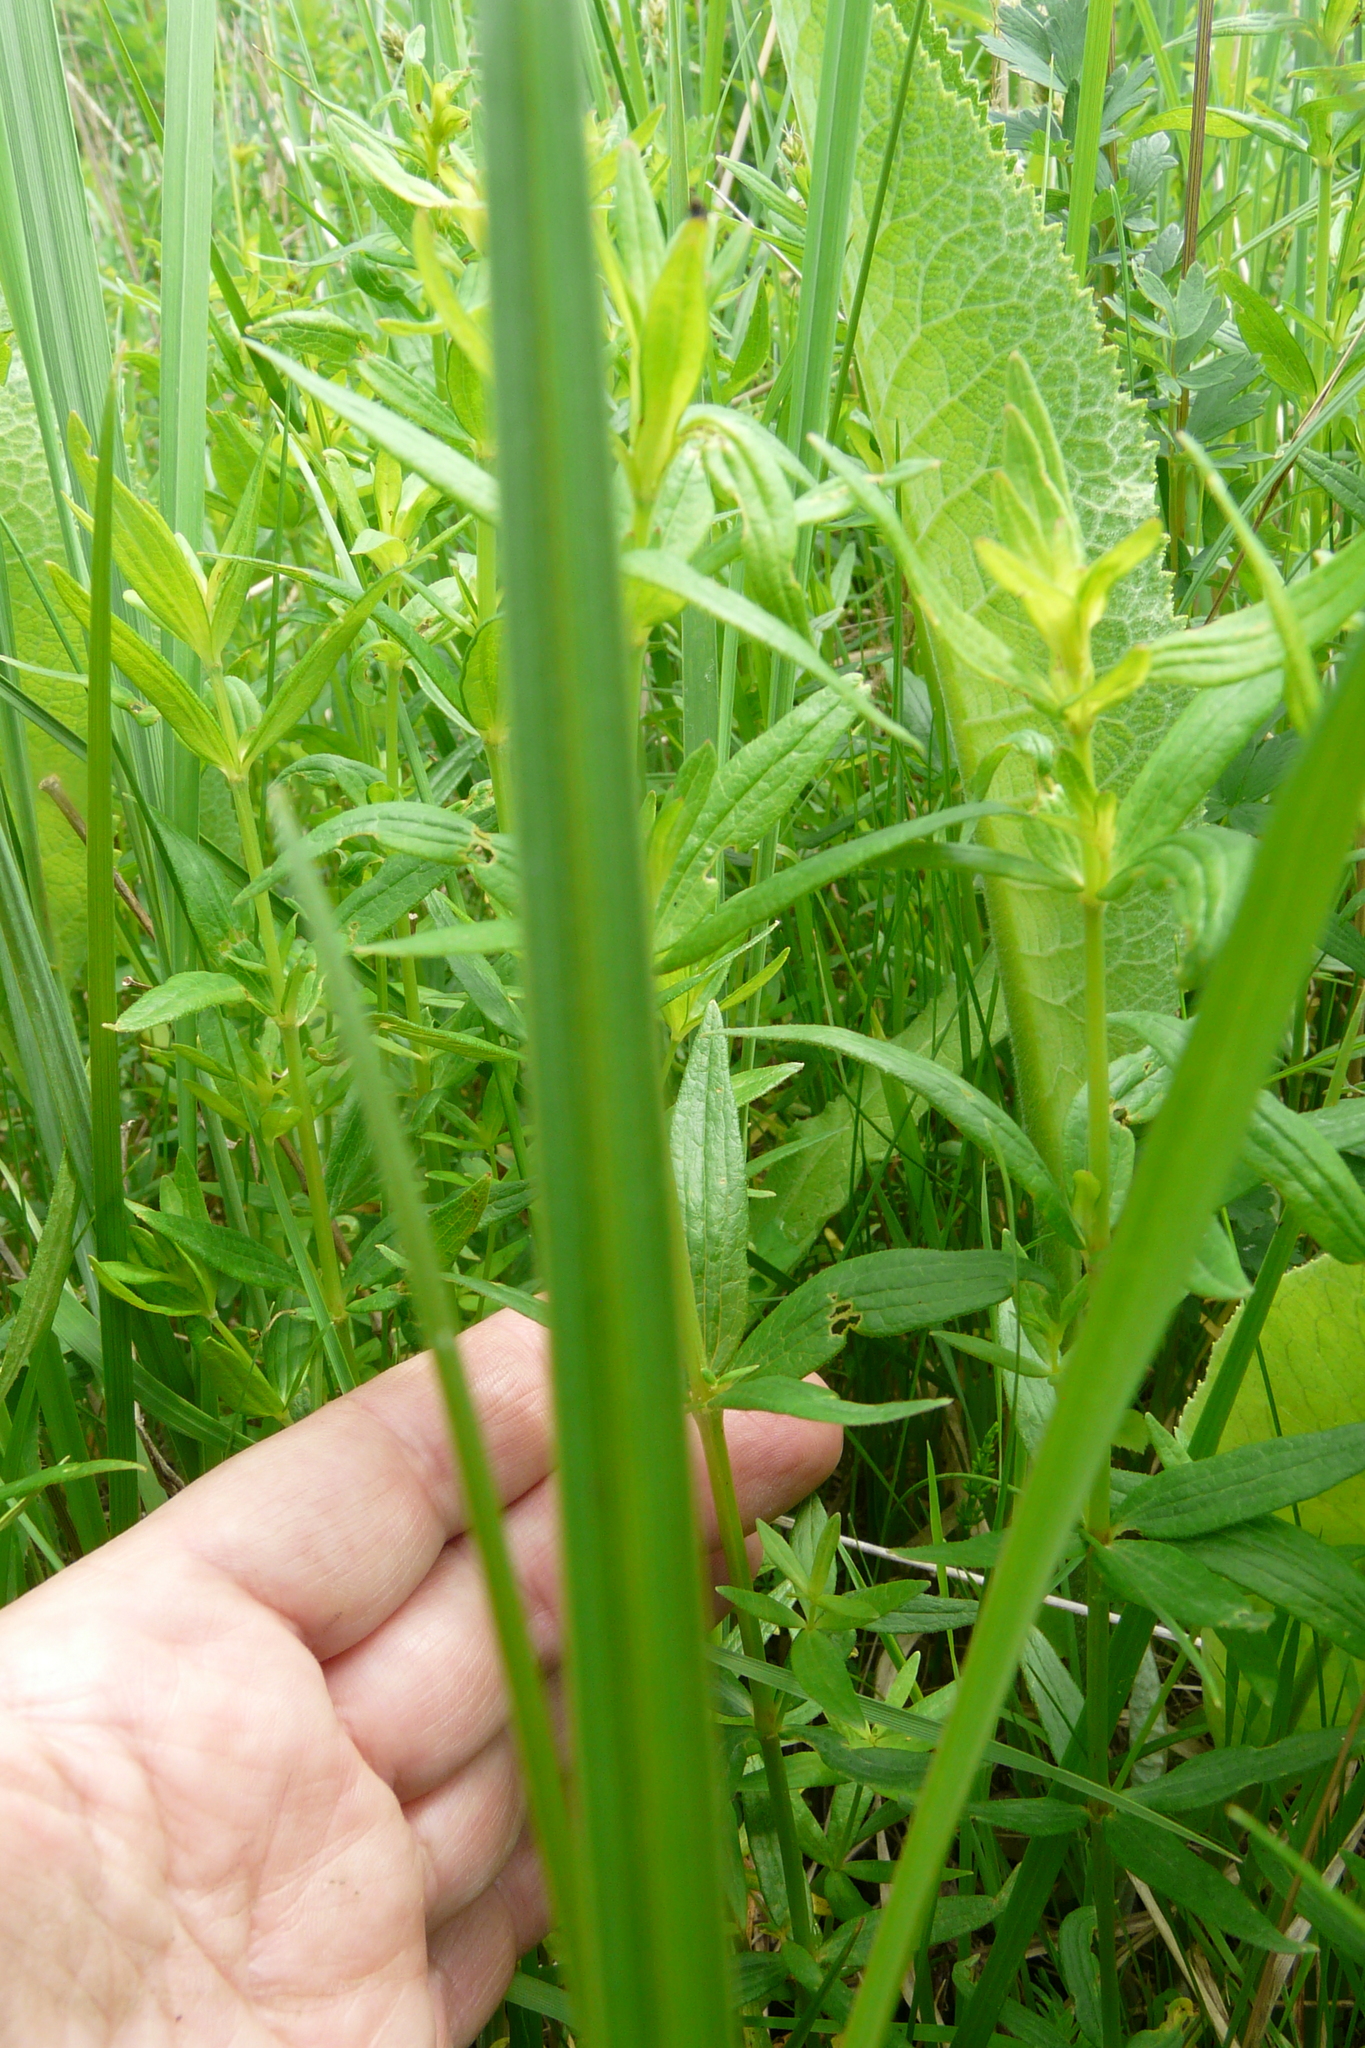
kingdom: Plantae
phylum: Tracheophyta
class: Magnoliopsida
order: Gentianales
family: Rubiaceae
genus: Galium
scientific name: Galium rubioides
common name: European bedstraw
